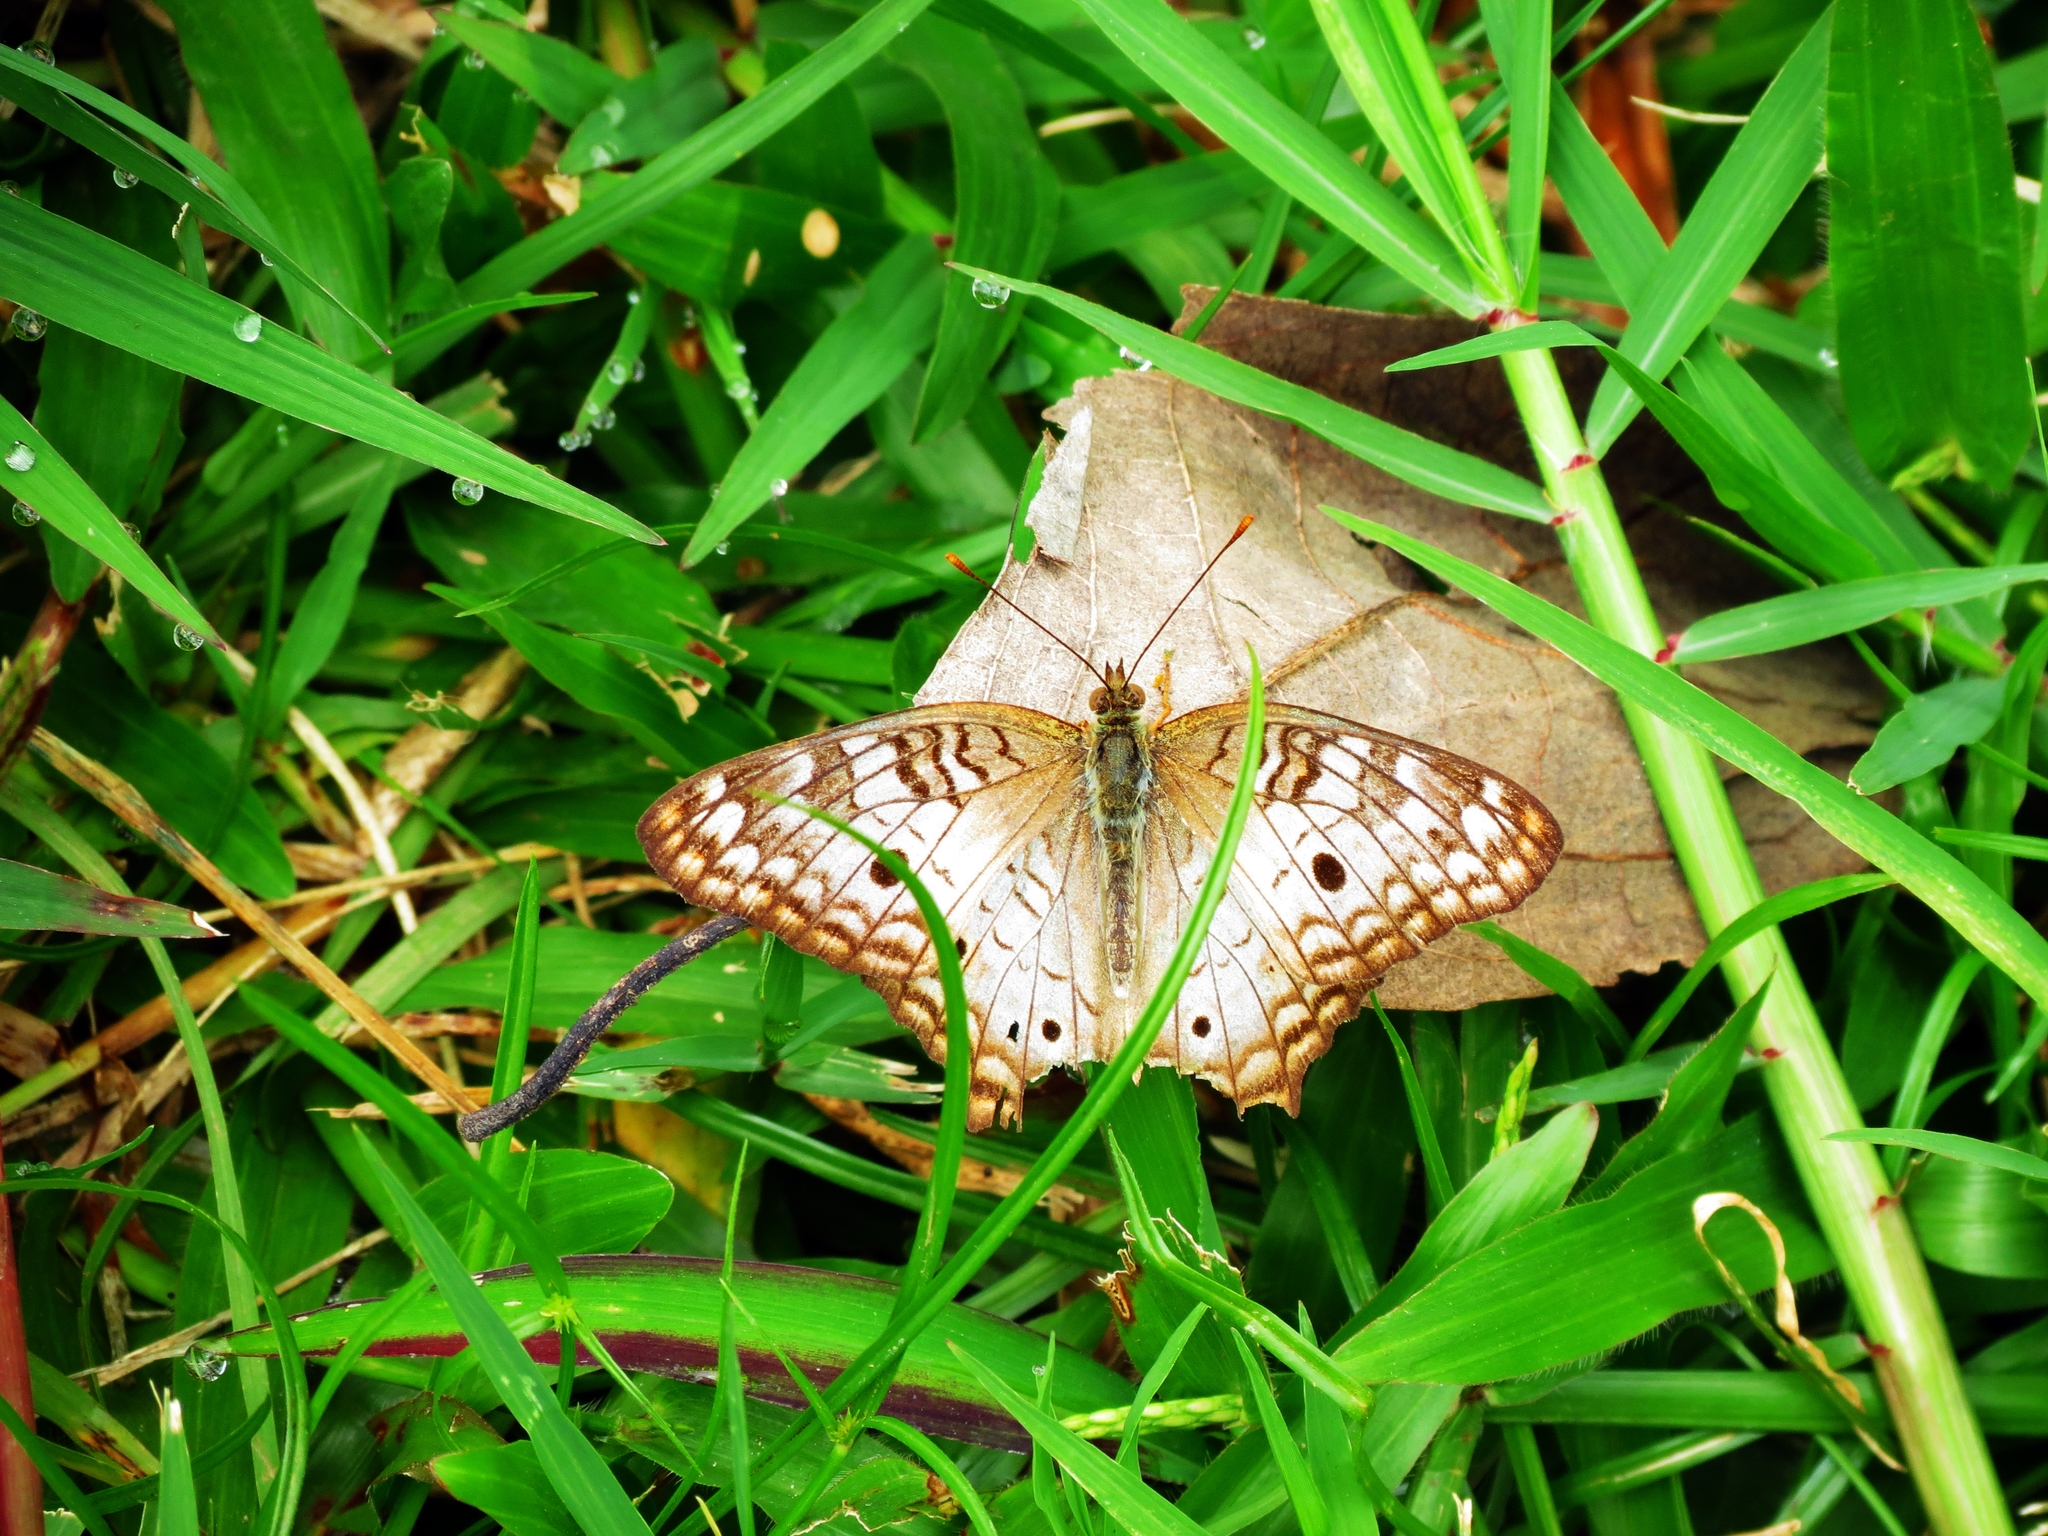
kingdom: Animalia
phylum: Arthropoda
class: Insecta
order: Lepidoptera
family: Nymphalidae
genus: Anartia
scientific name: Anartia jatrophae
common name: White peacock
